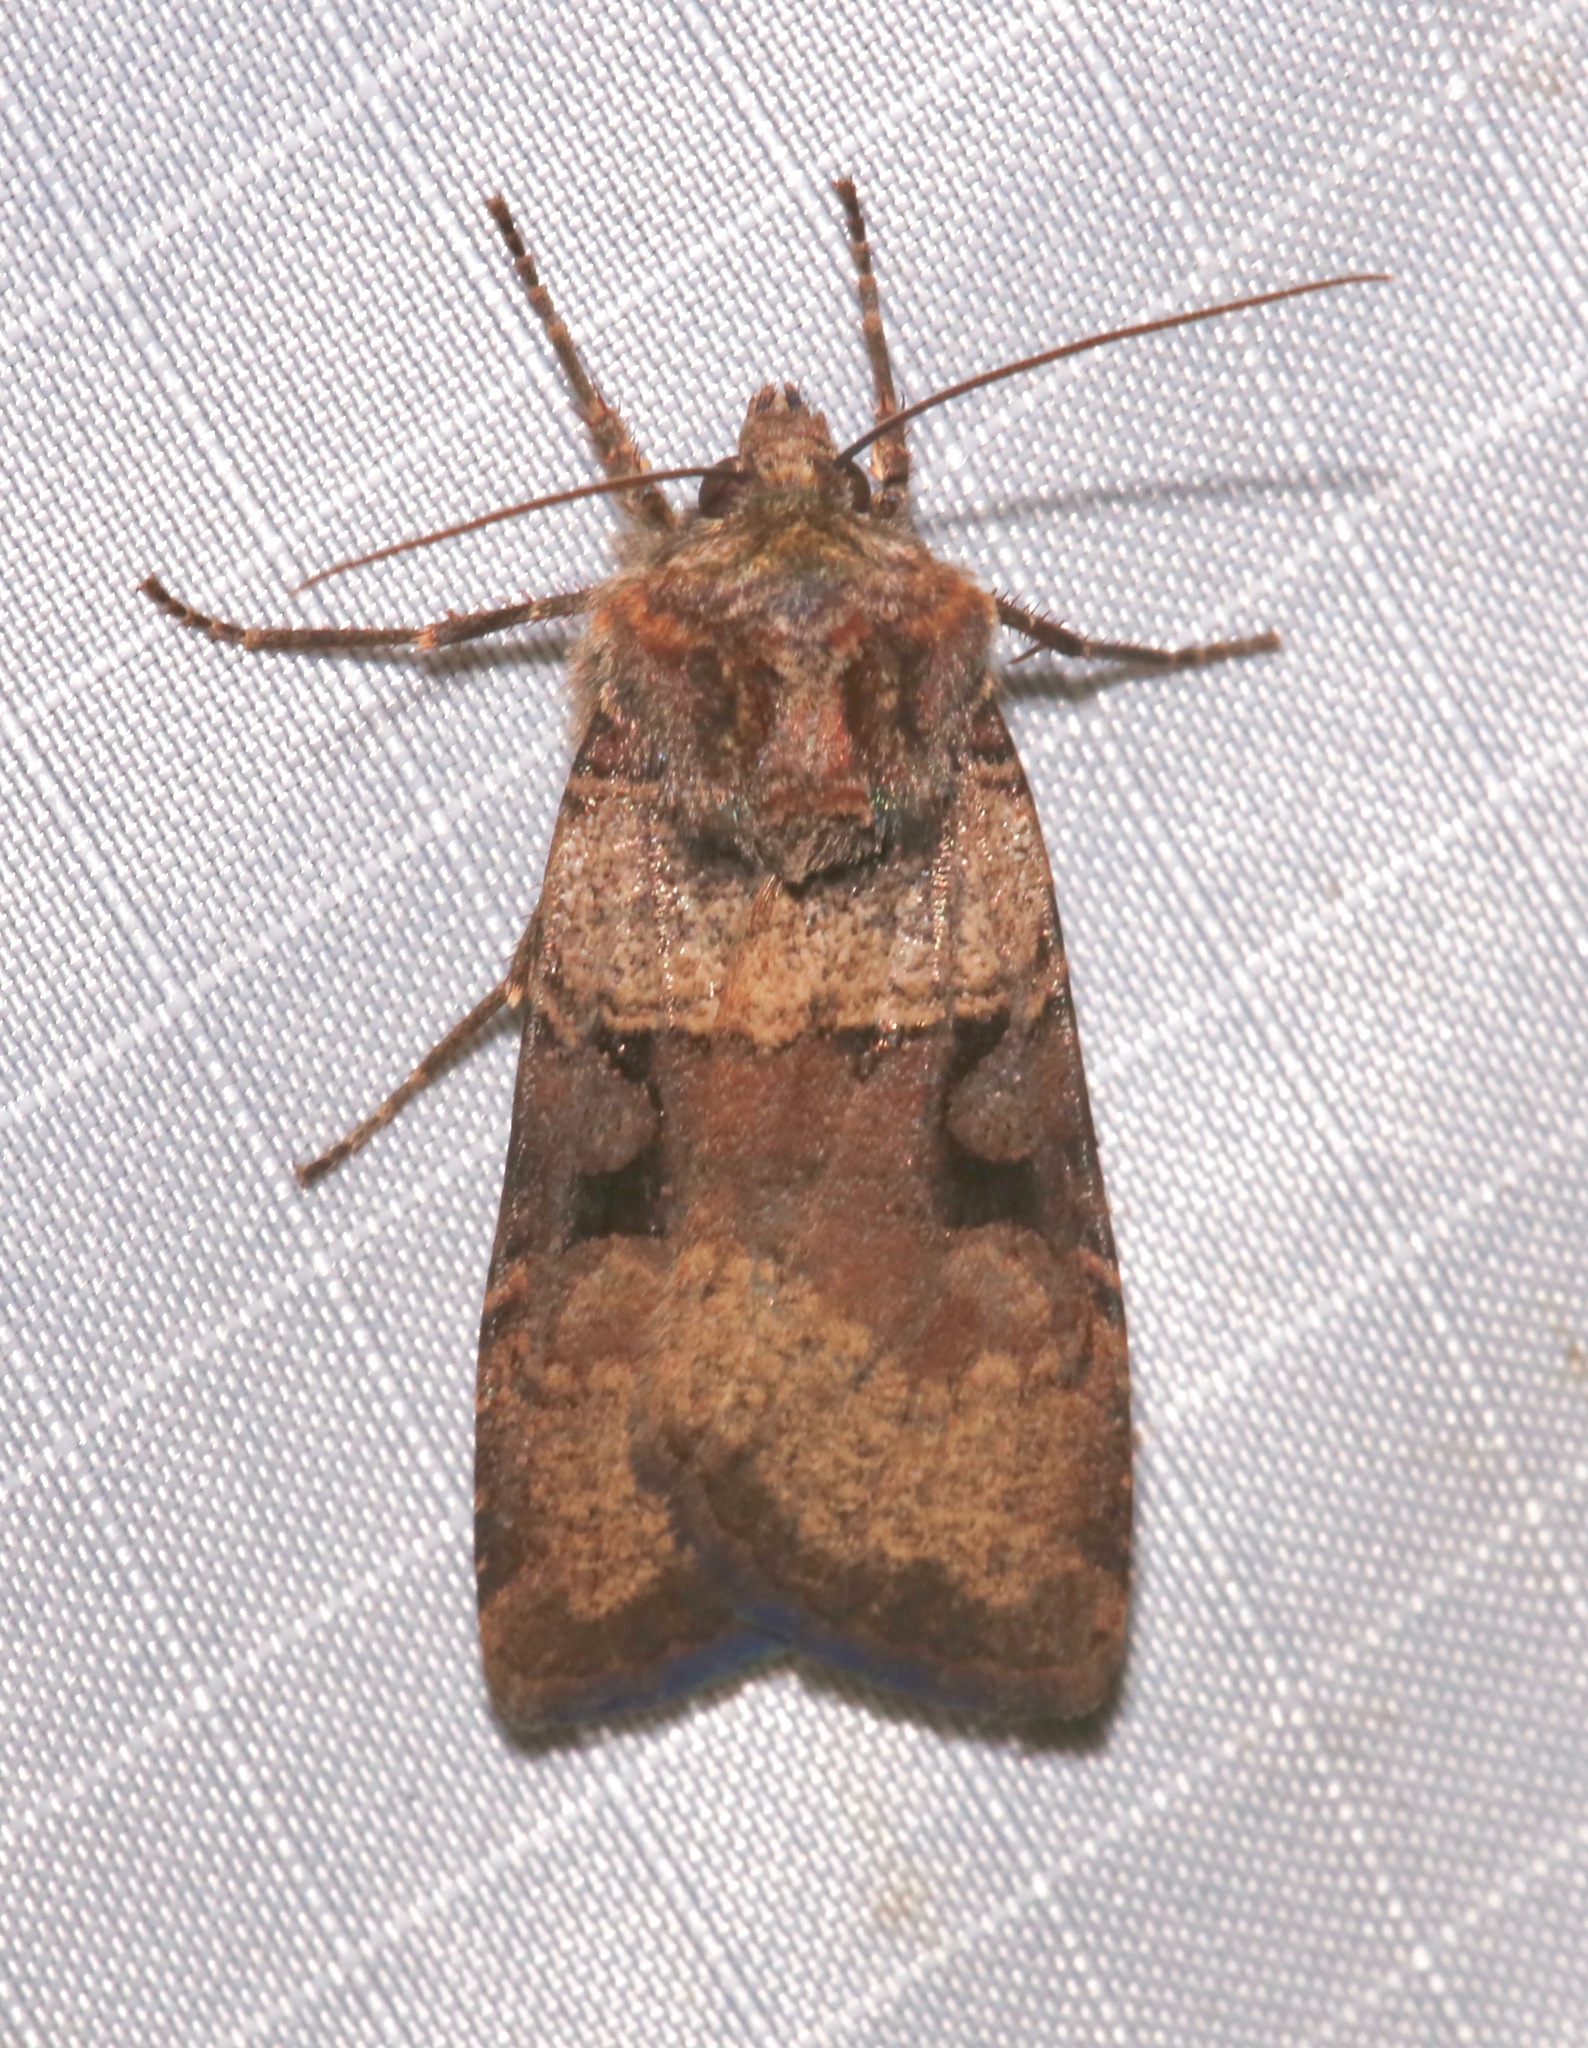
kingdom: Animalia
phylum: Arthropoda
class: Insecta
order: Lepidoptera
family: Noctuidae
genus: Richia
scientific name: Richia serano
